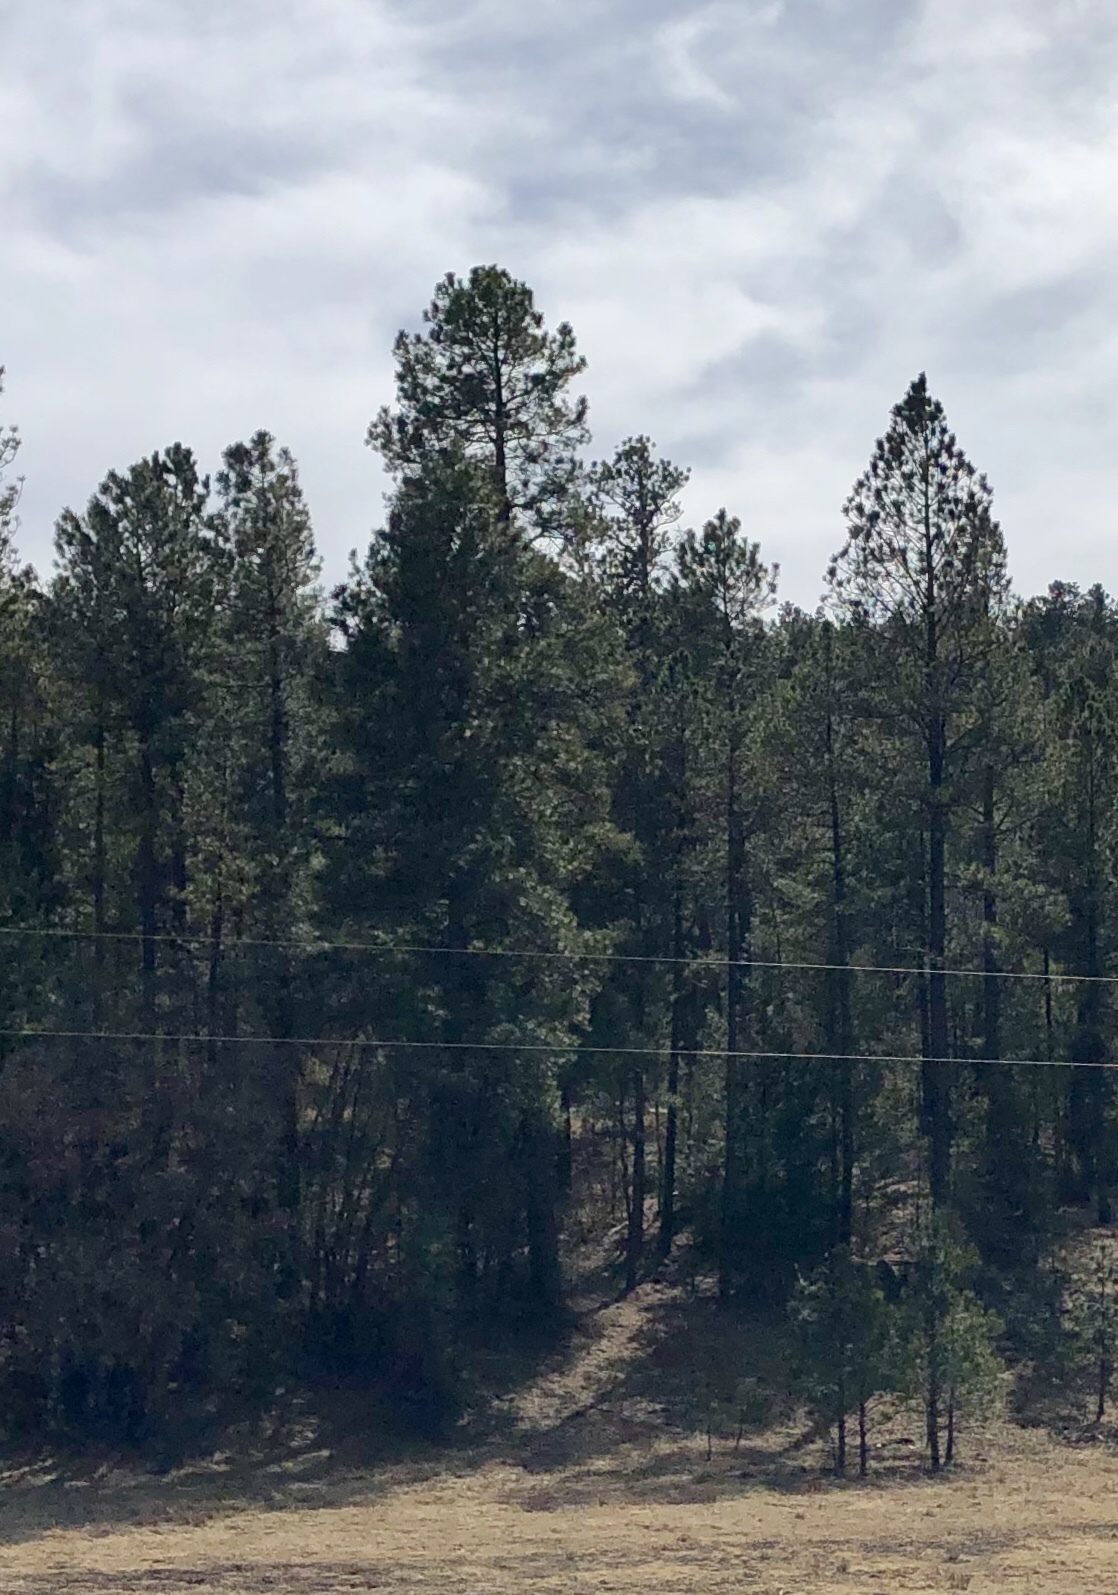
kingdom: Plantae
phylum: Tracheophyta
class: Pinopsida
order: Pinales
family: Pinaceae
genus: Pinus
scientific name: Pinus ponderosa
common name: Western yellow-pine
